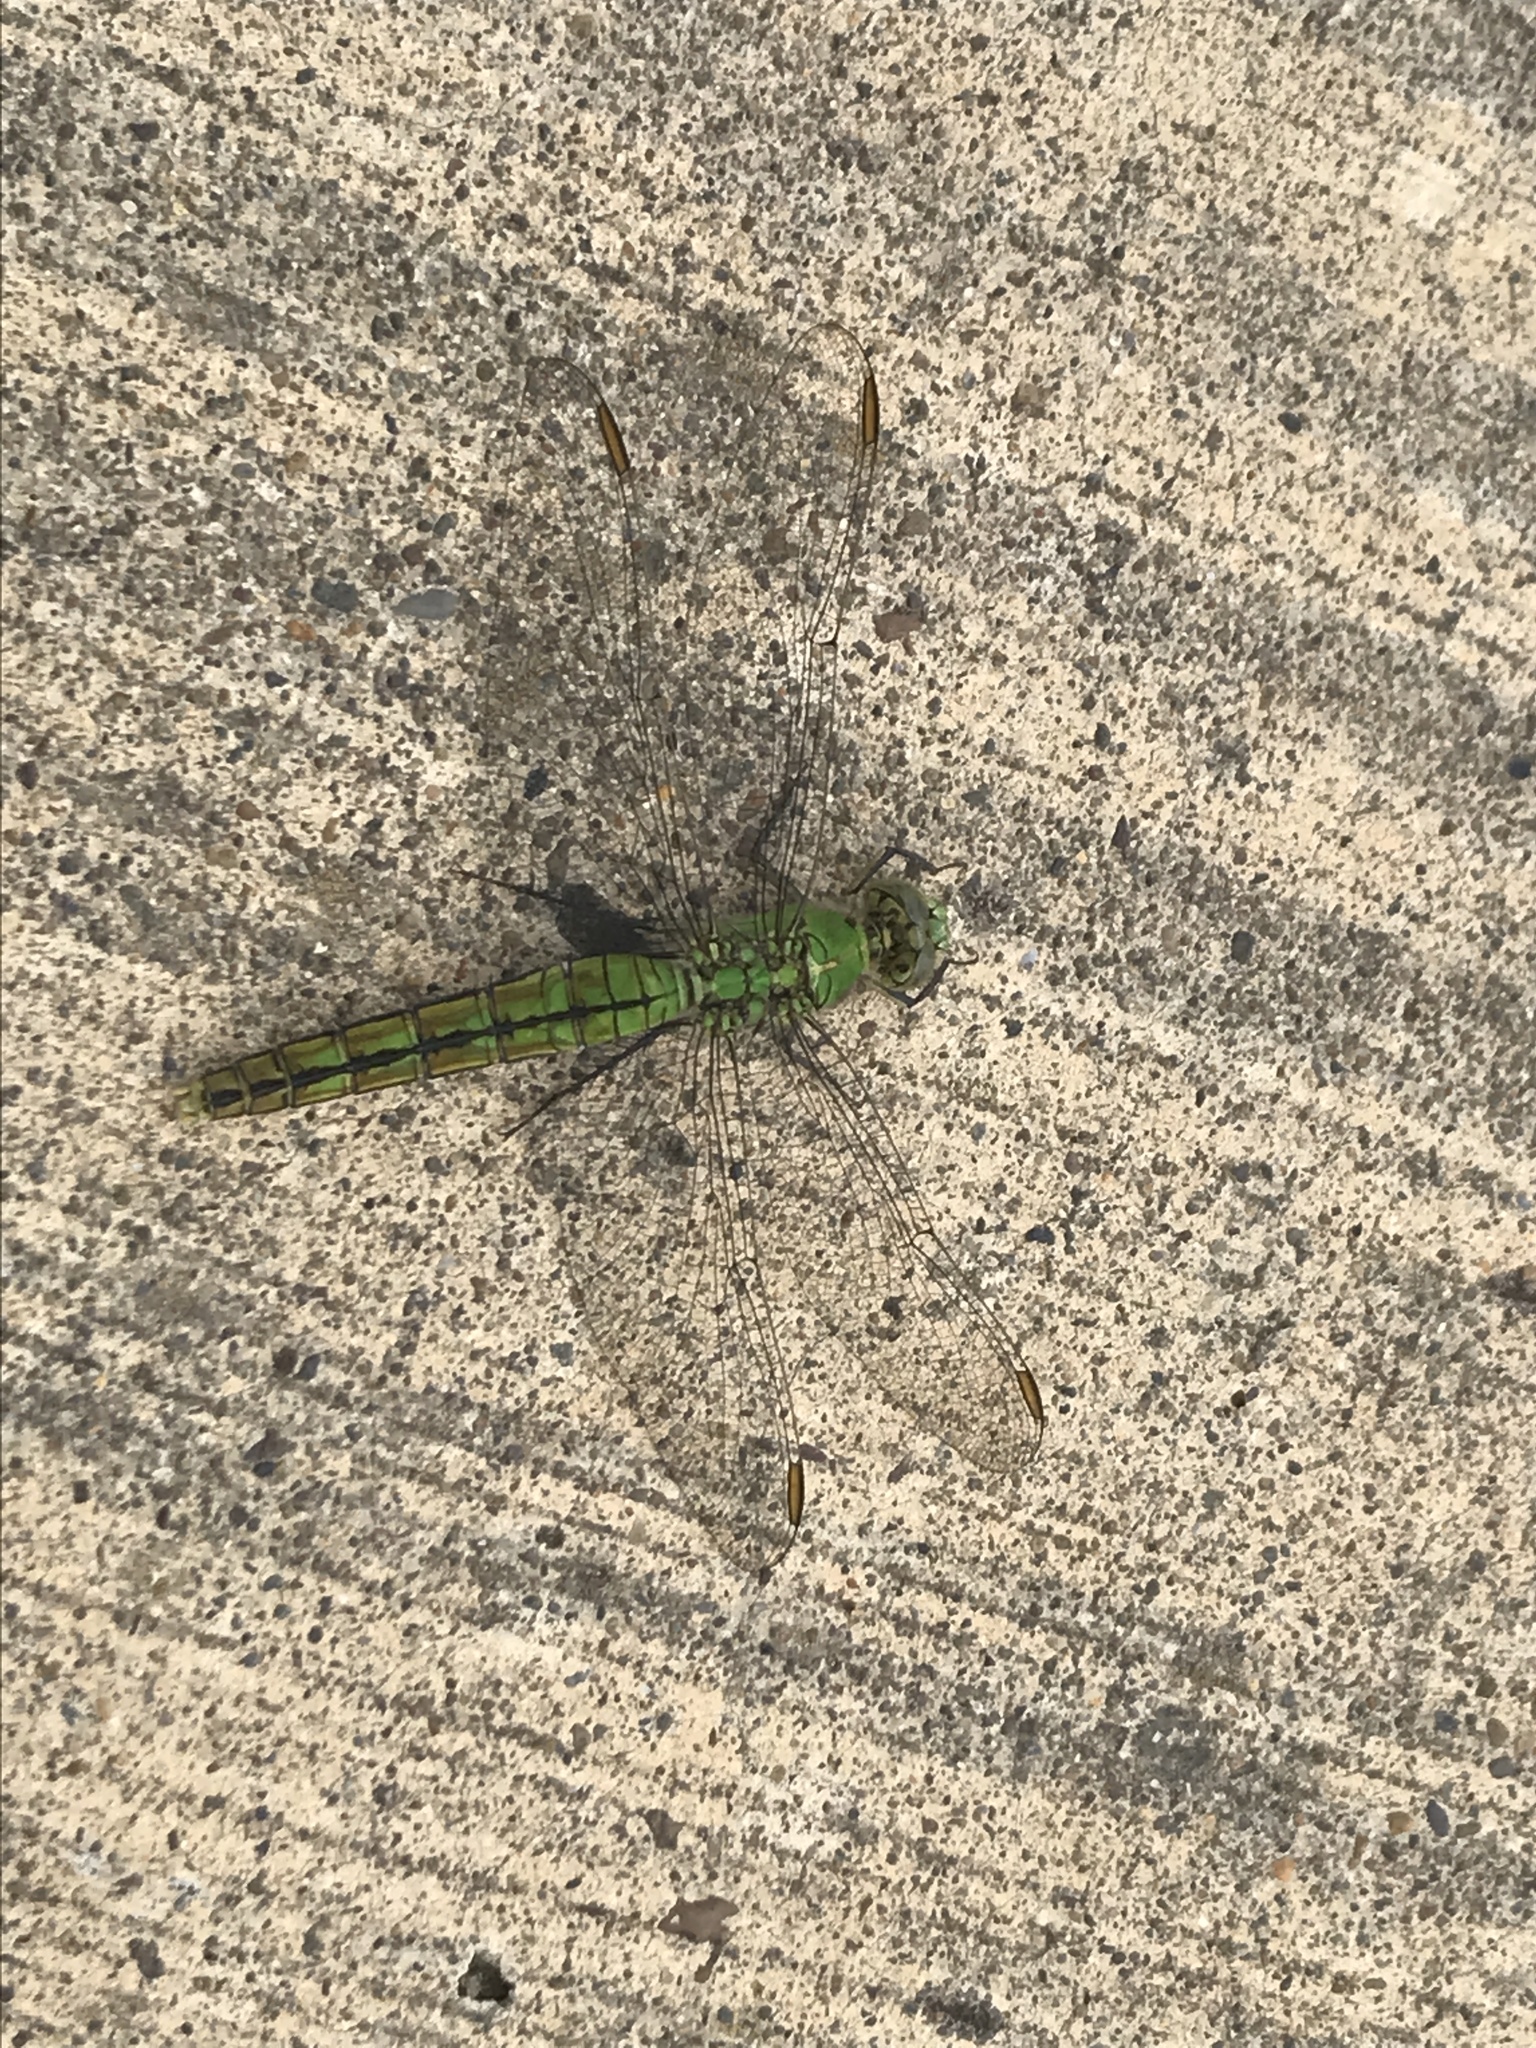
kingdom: Animalia
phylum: Arthropoda
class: Insecta
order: Odonata
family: Libellulidae
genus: Erythemis
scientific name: Erythemis collocata
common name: Western pondhawk
